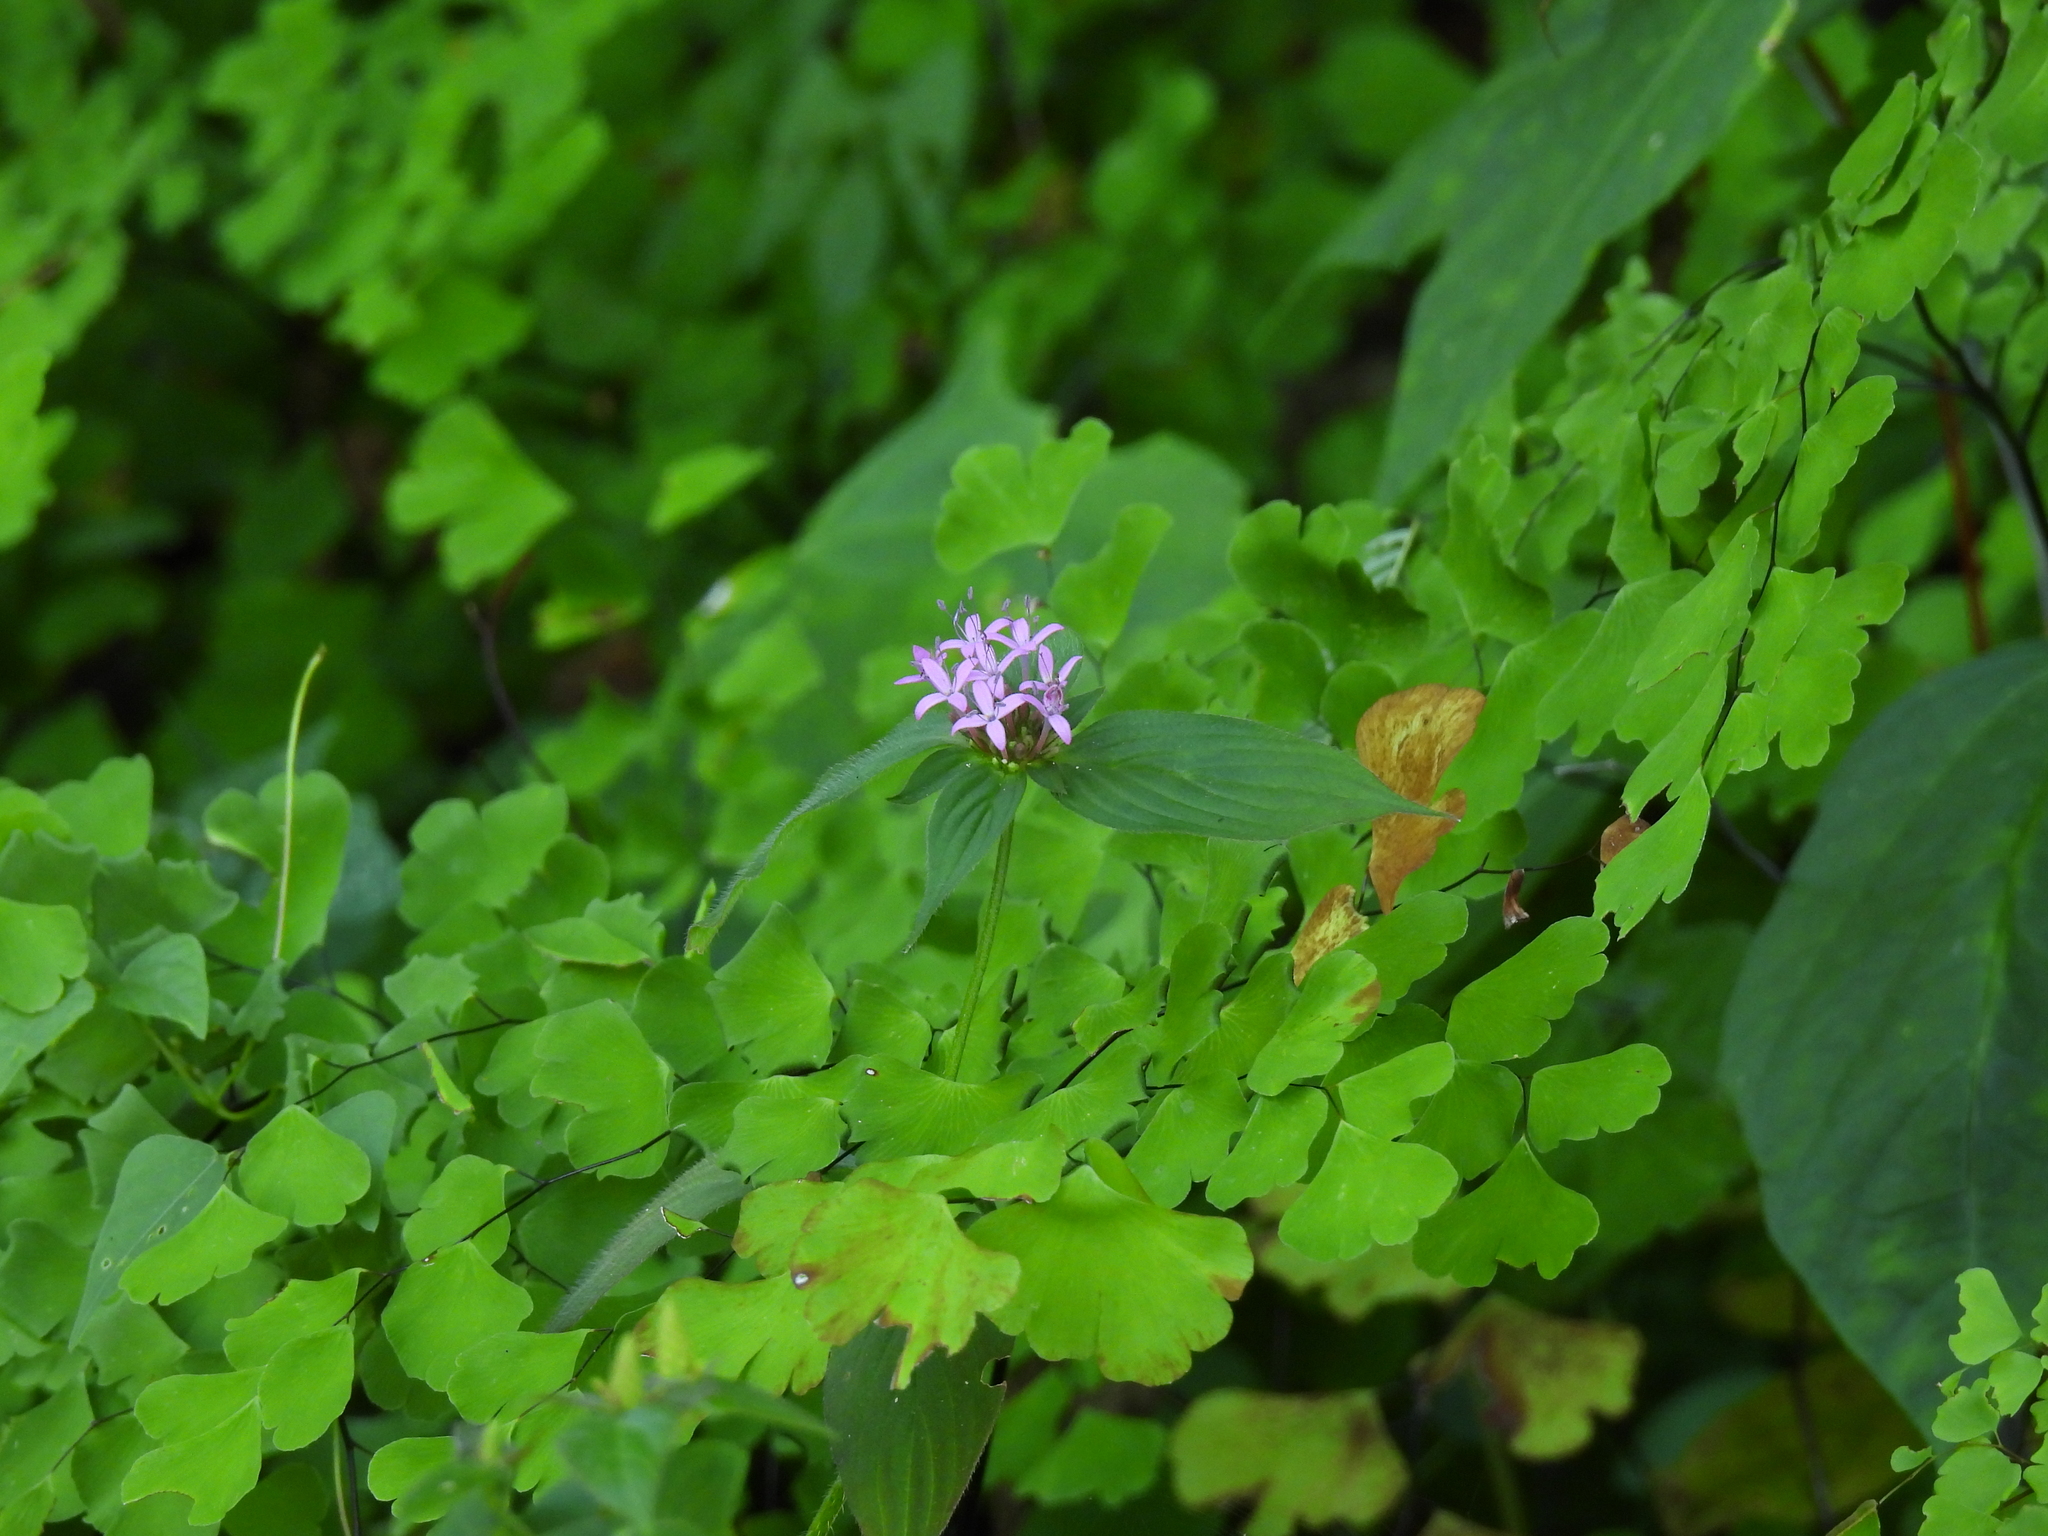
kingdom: Plantae
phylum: Tracheophyta
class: Magnoliopsida
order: Gentianales
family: Rubiaceae
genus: Crusea
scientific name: Crusea hispida
